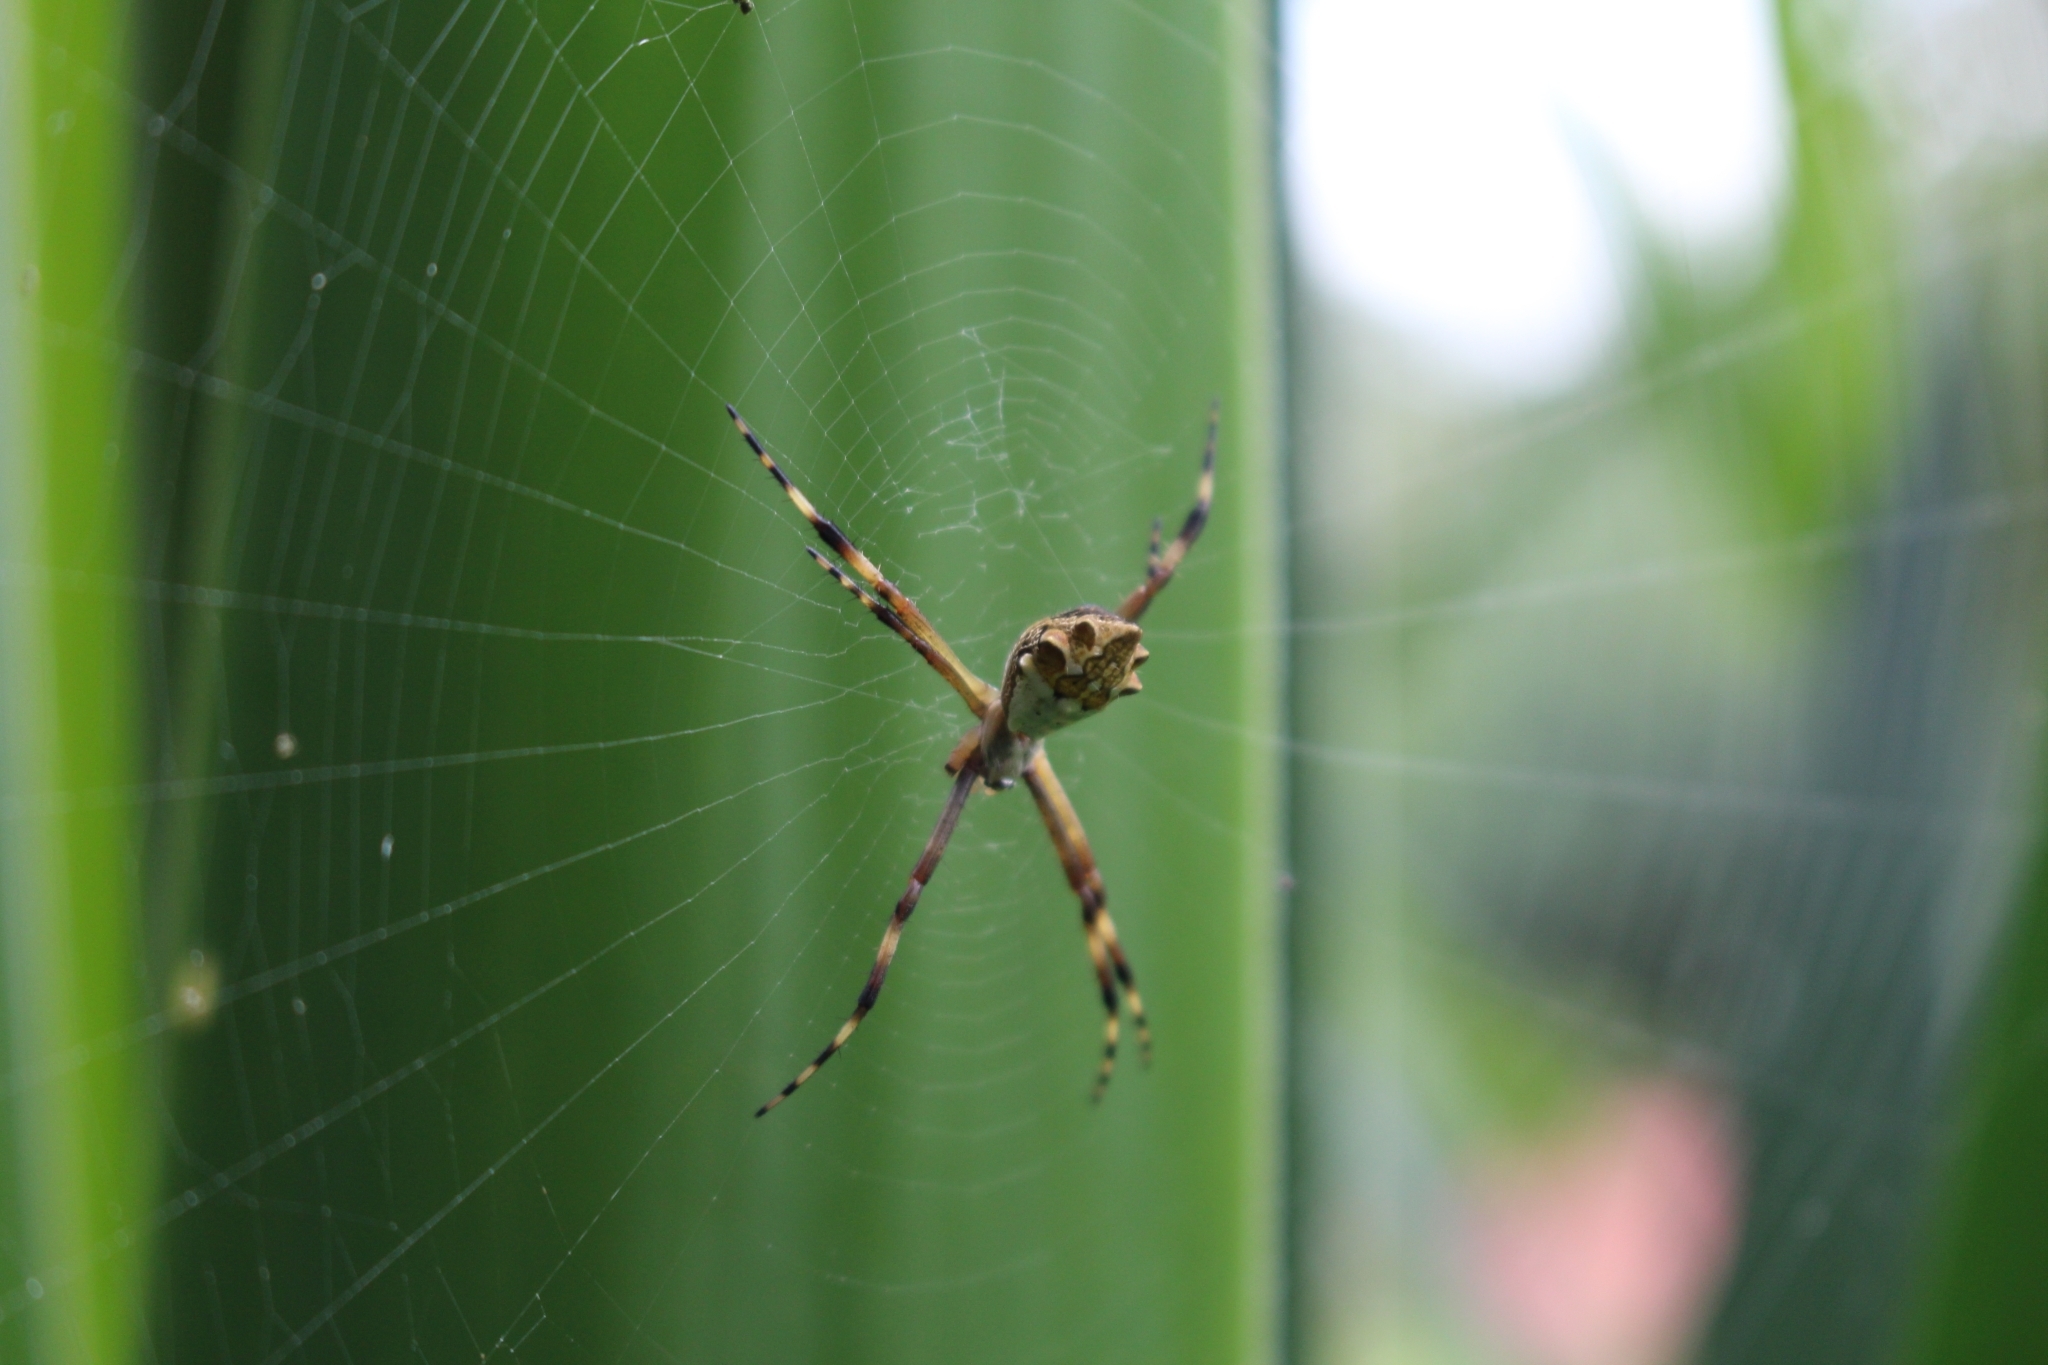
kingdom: Animalia
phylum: Arthropoda
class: Arachnida
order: Araneae
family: Araneidae
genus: Argiope
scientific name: Argiope argentata
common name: Orb weavers
